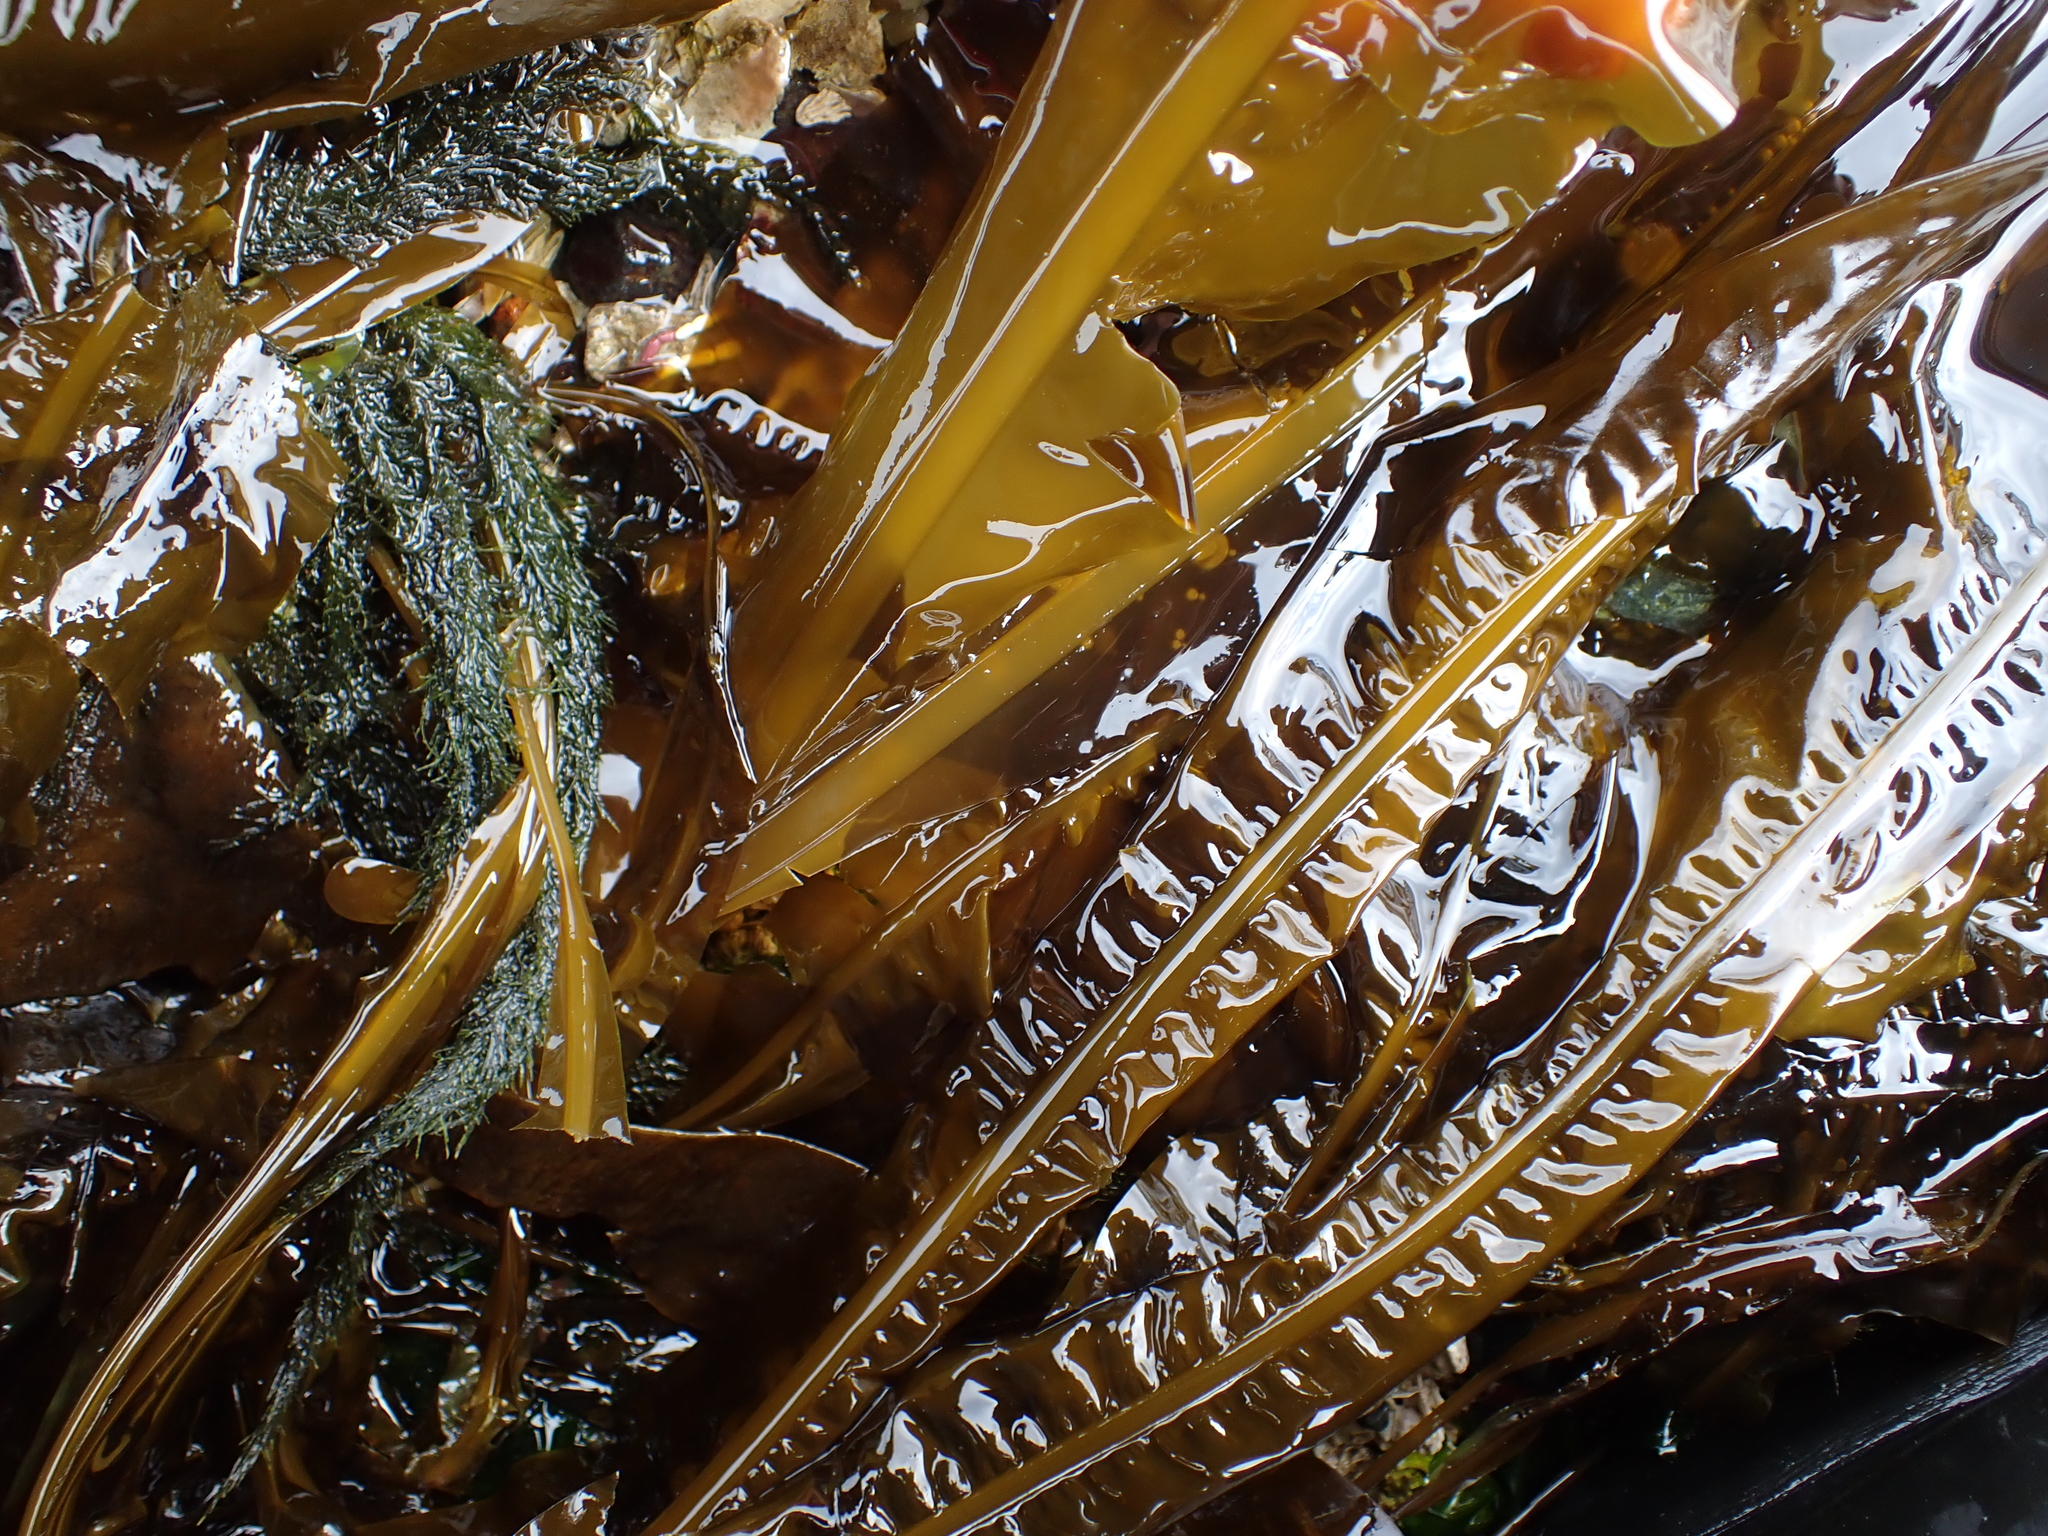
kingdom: Chromista
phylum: Ochrophyta
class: Phaeophyceae
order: Laminariales
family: Alariaceae
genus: Alaria
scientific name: Alaria marginata
